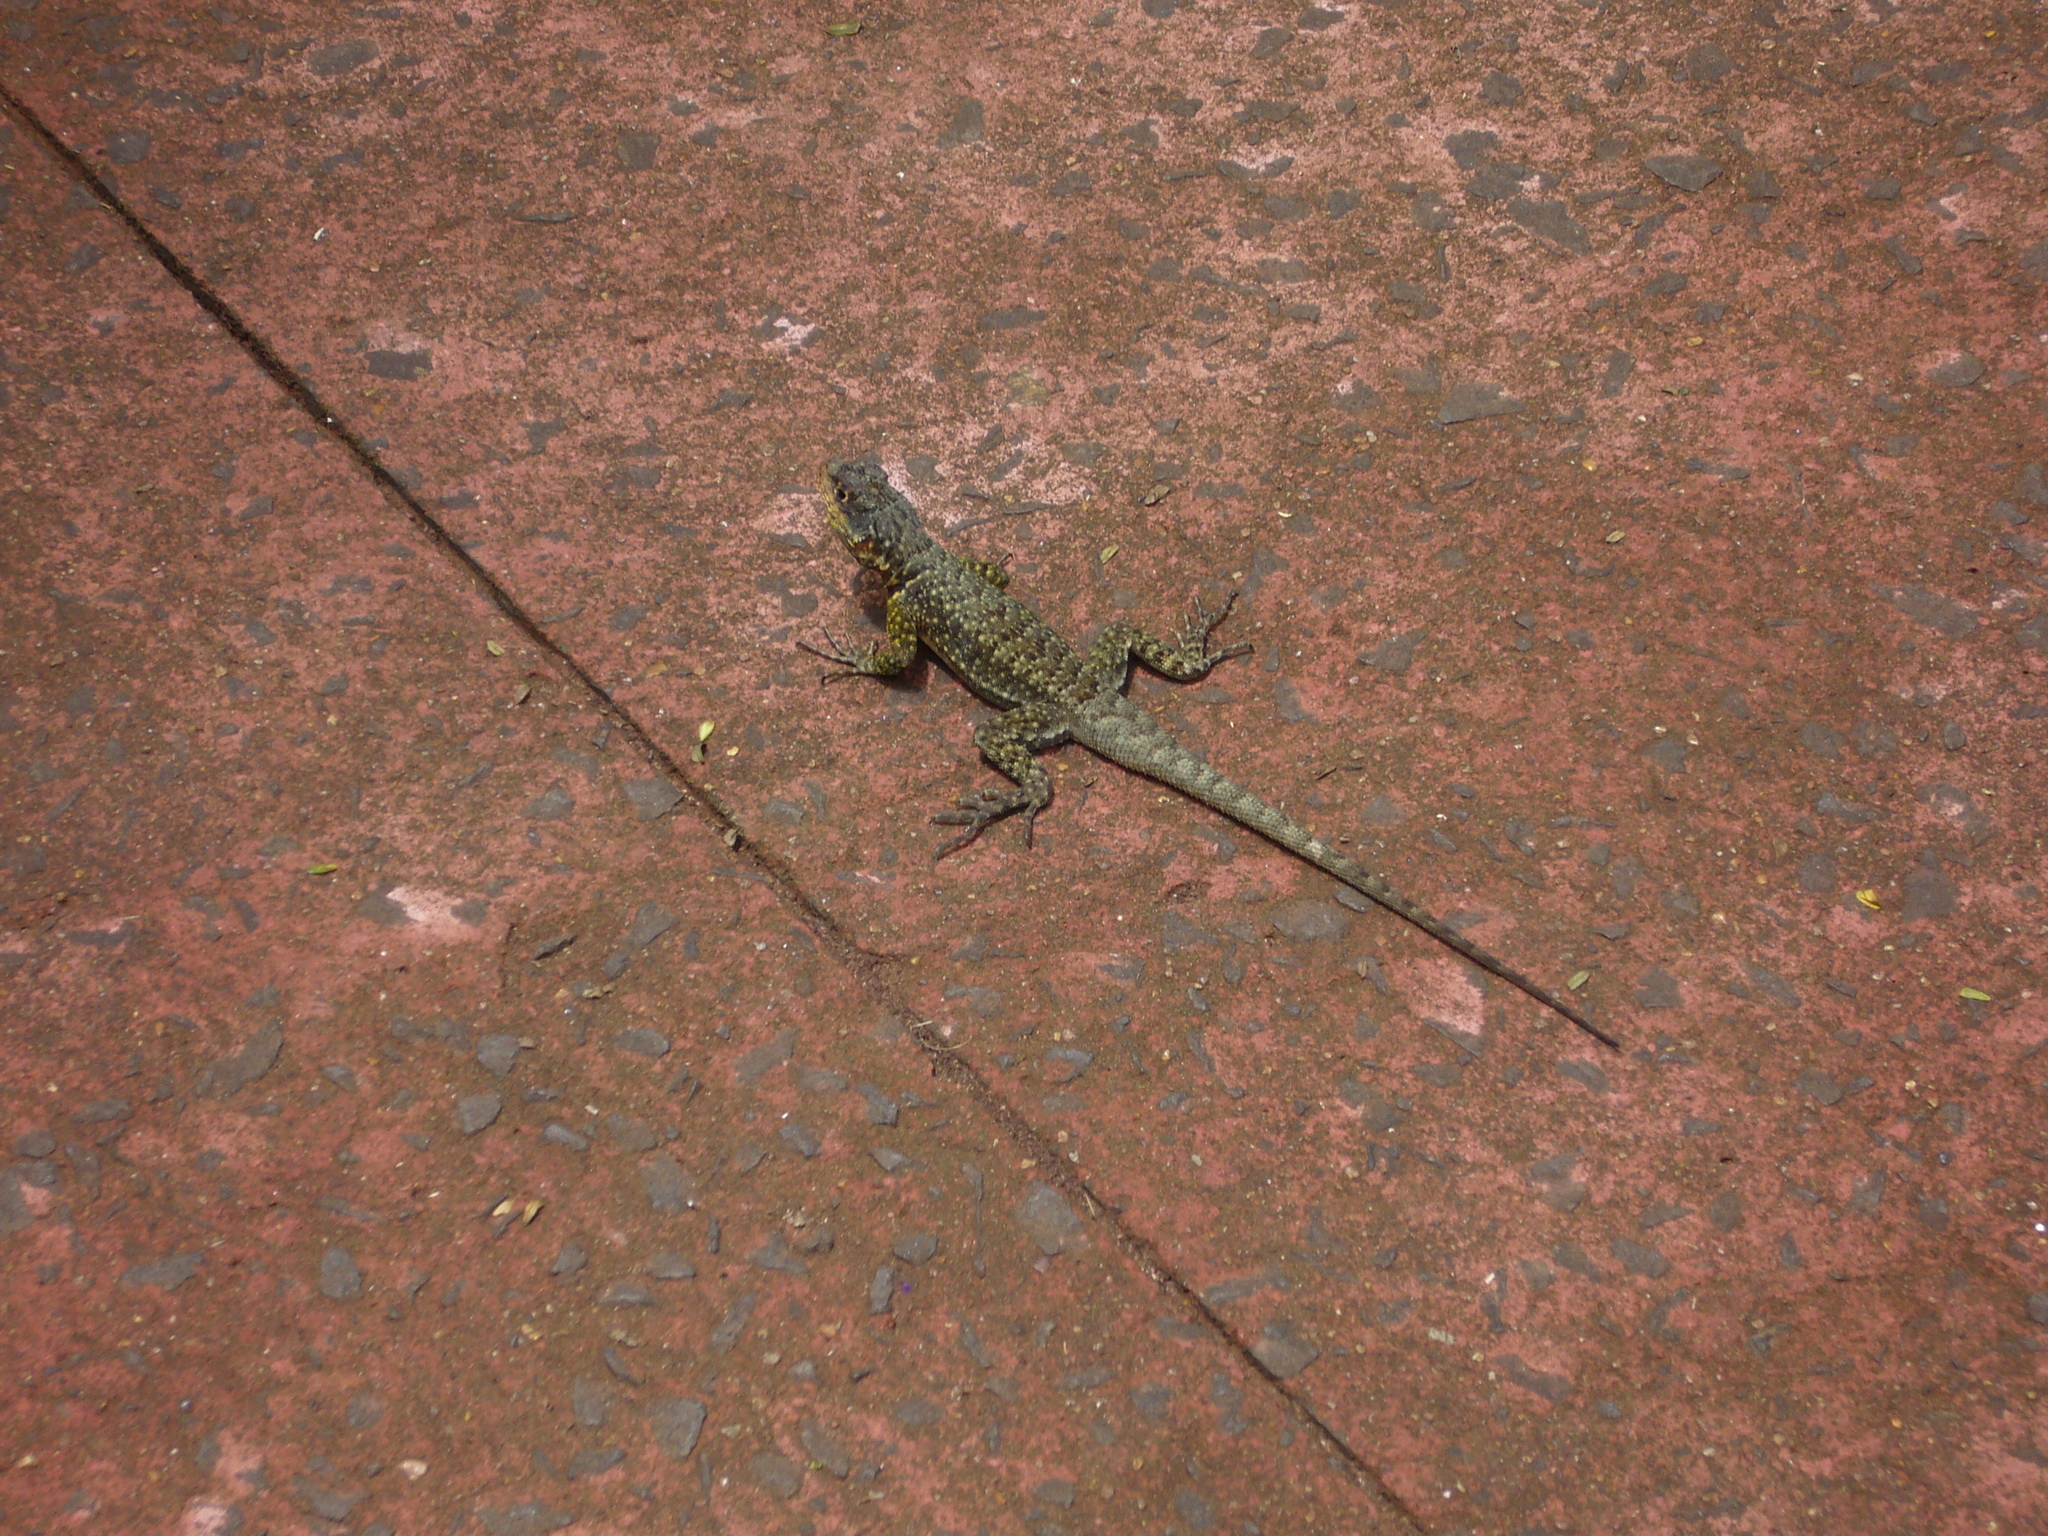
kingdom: Animalia
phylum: Chordata
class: Squamata
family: Tropiduridae
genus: Tropidurus
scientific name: Tropidurus catalanensis
